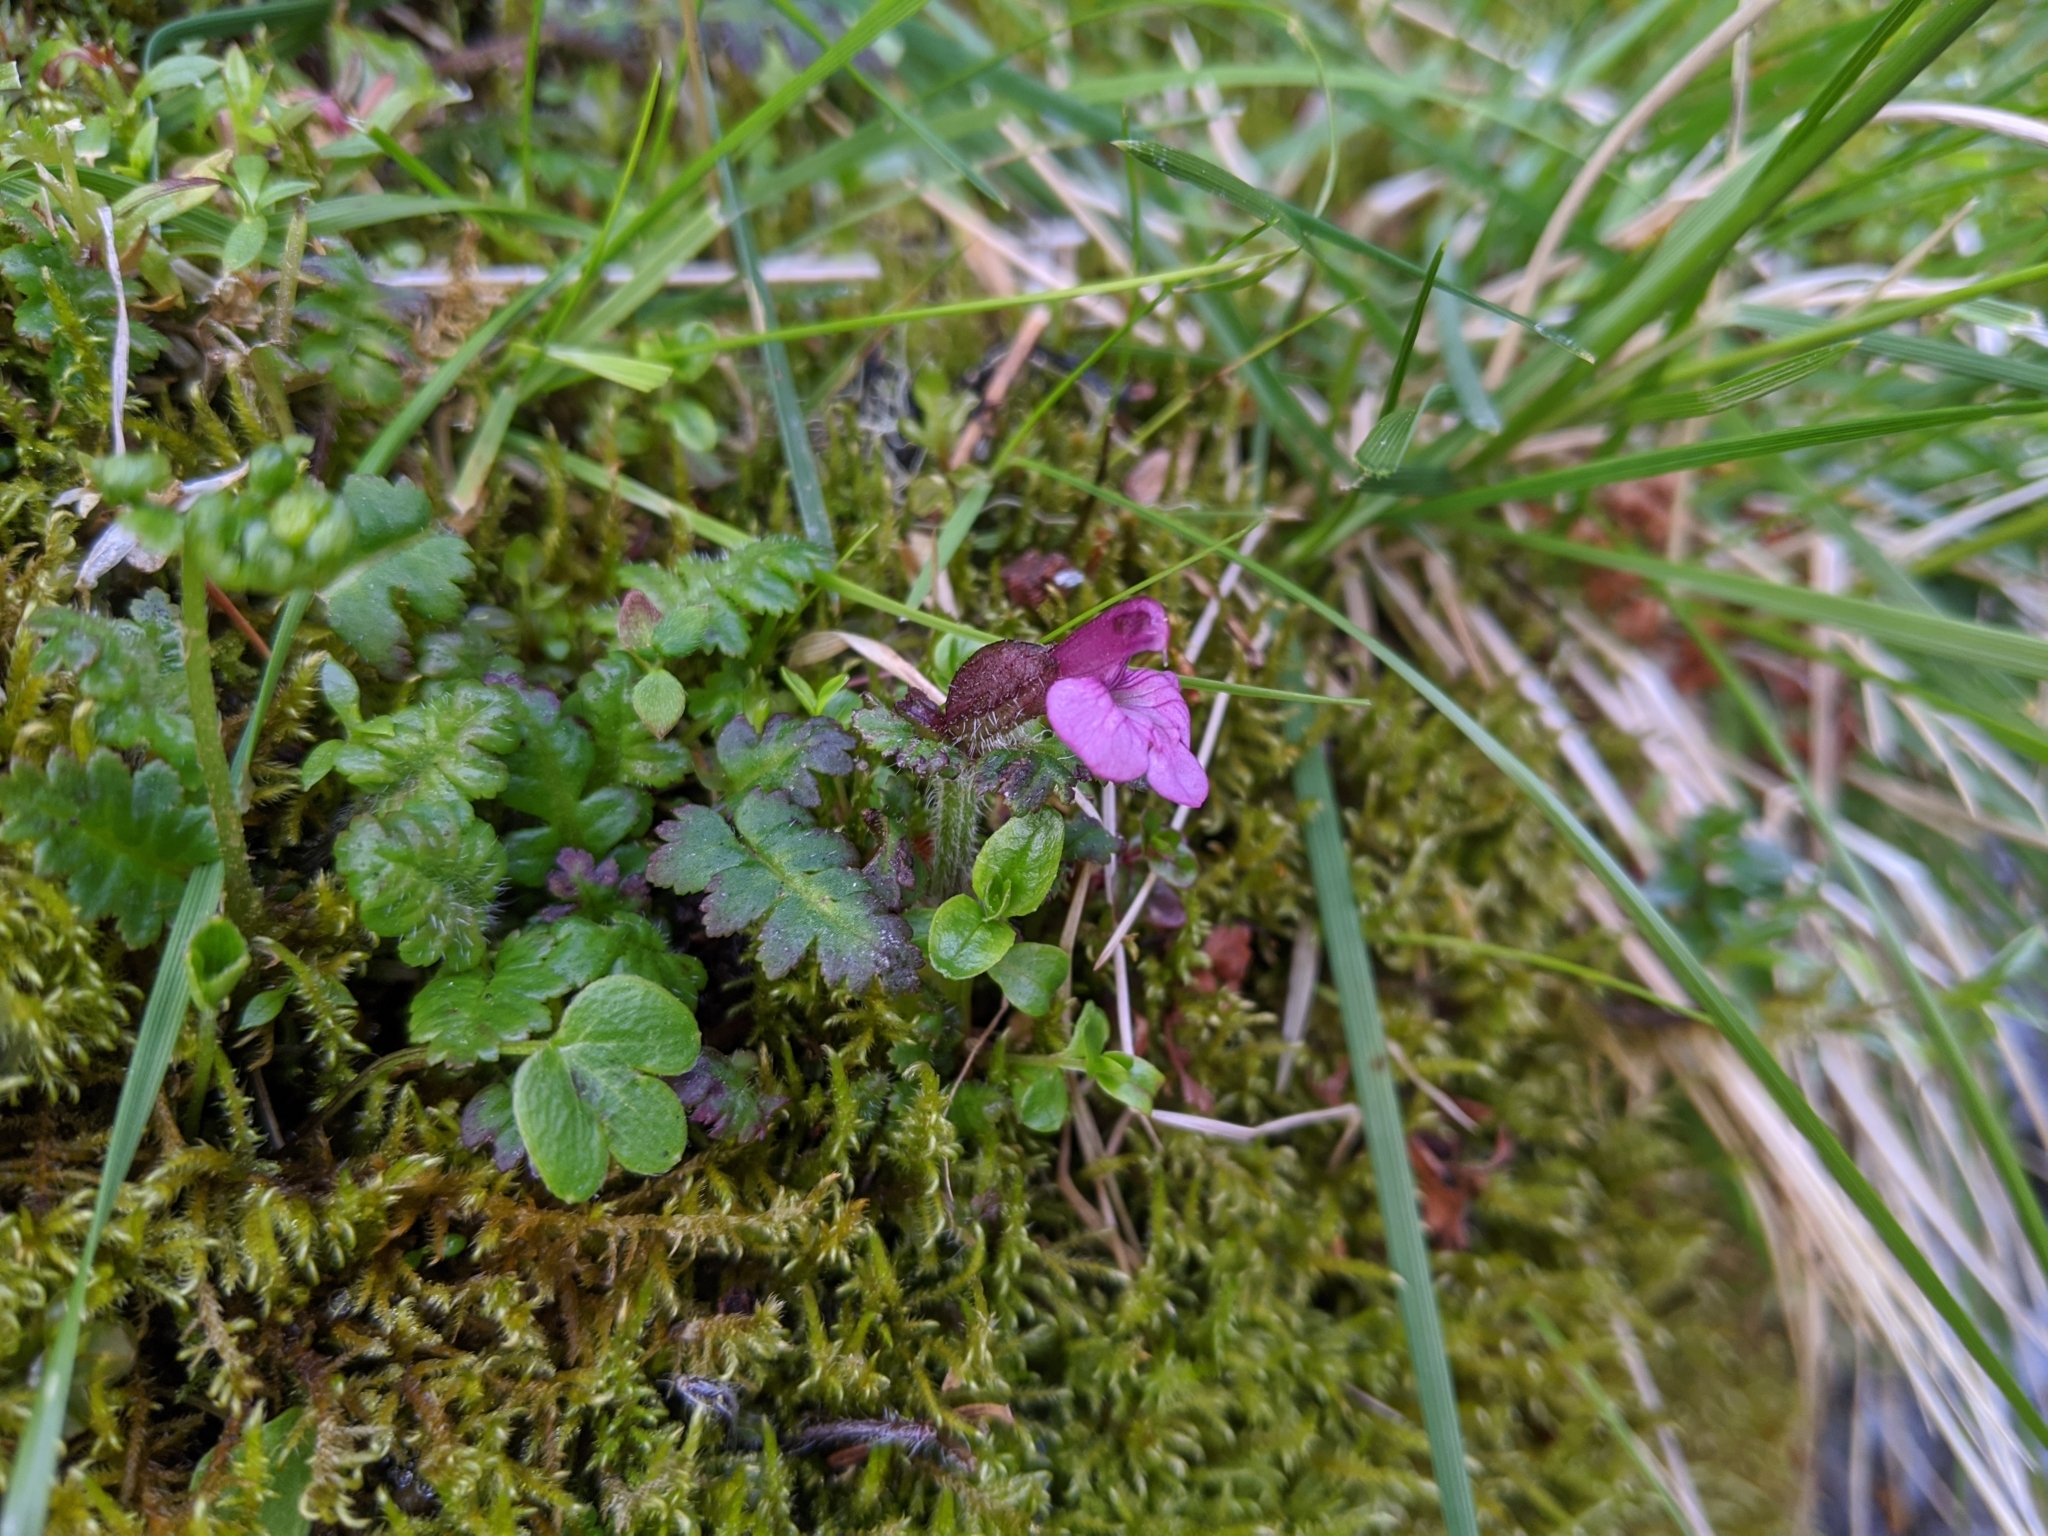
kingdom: Plantae
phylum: Tracheophyta
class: Magnoliopsida
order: Lamiales
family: Orobanchaceae
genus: Pedicularis
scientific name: Pedicularis refracta
